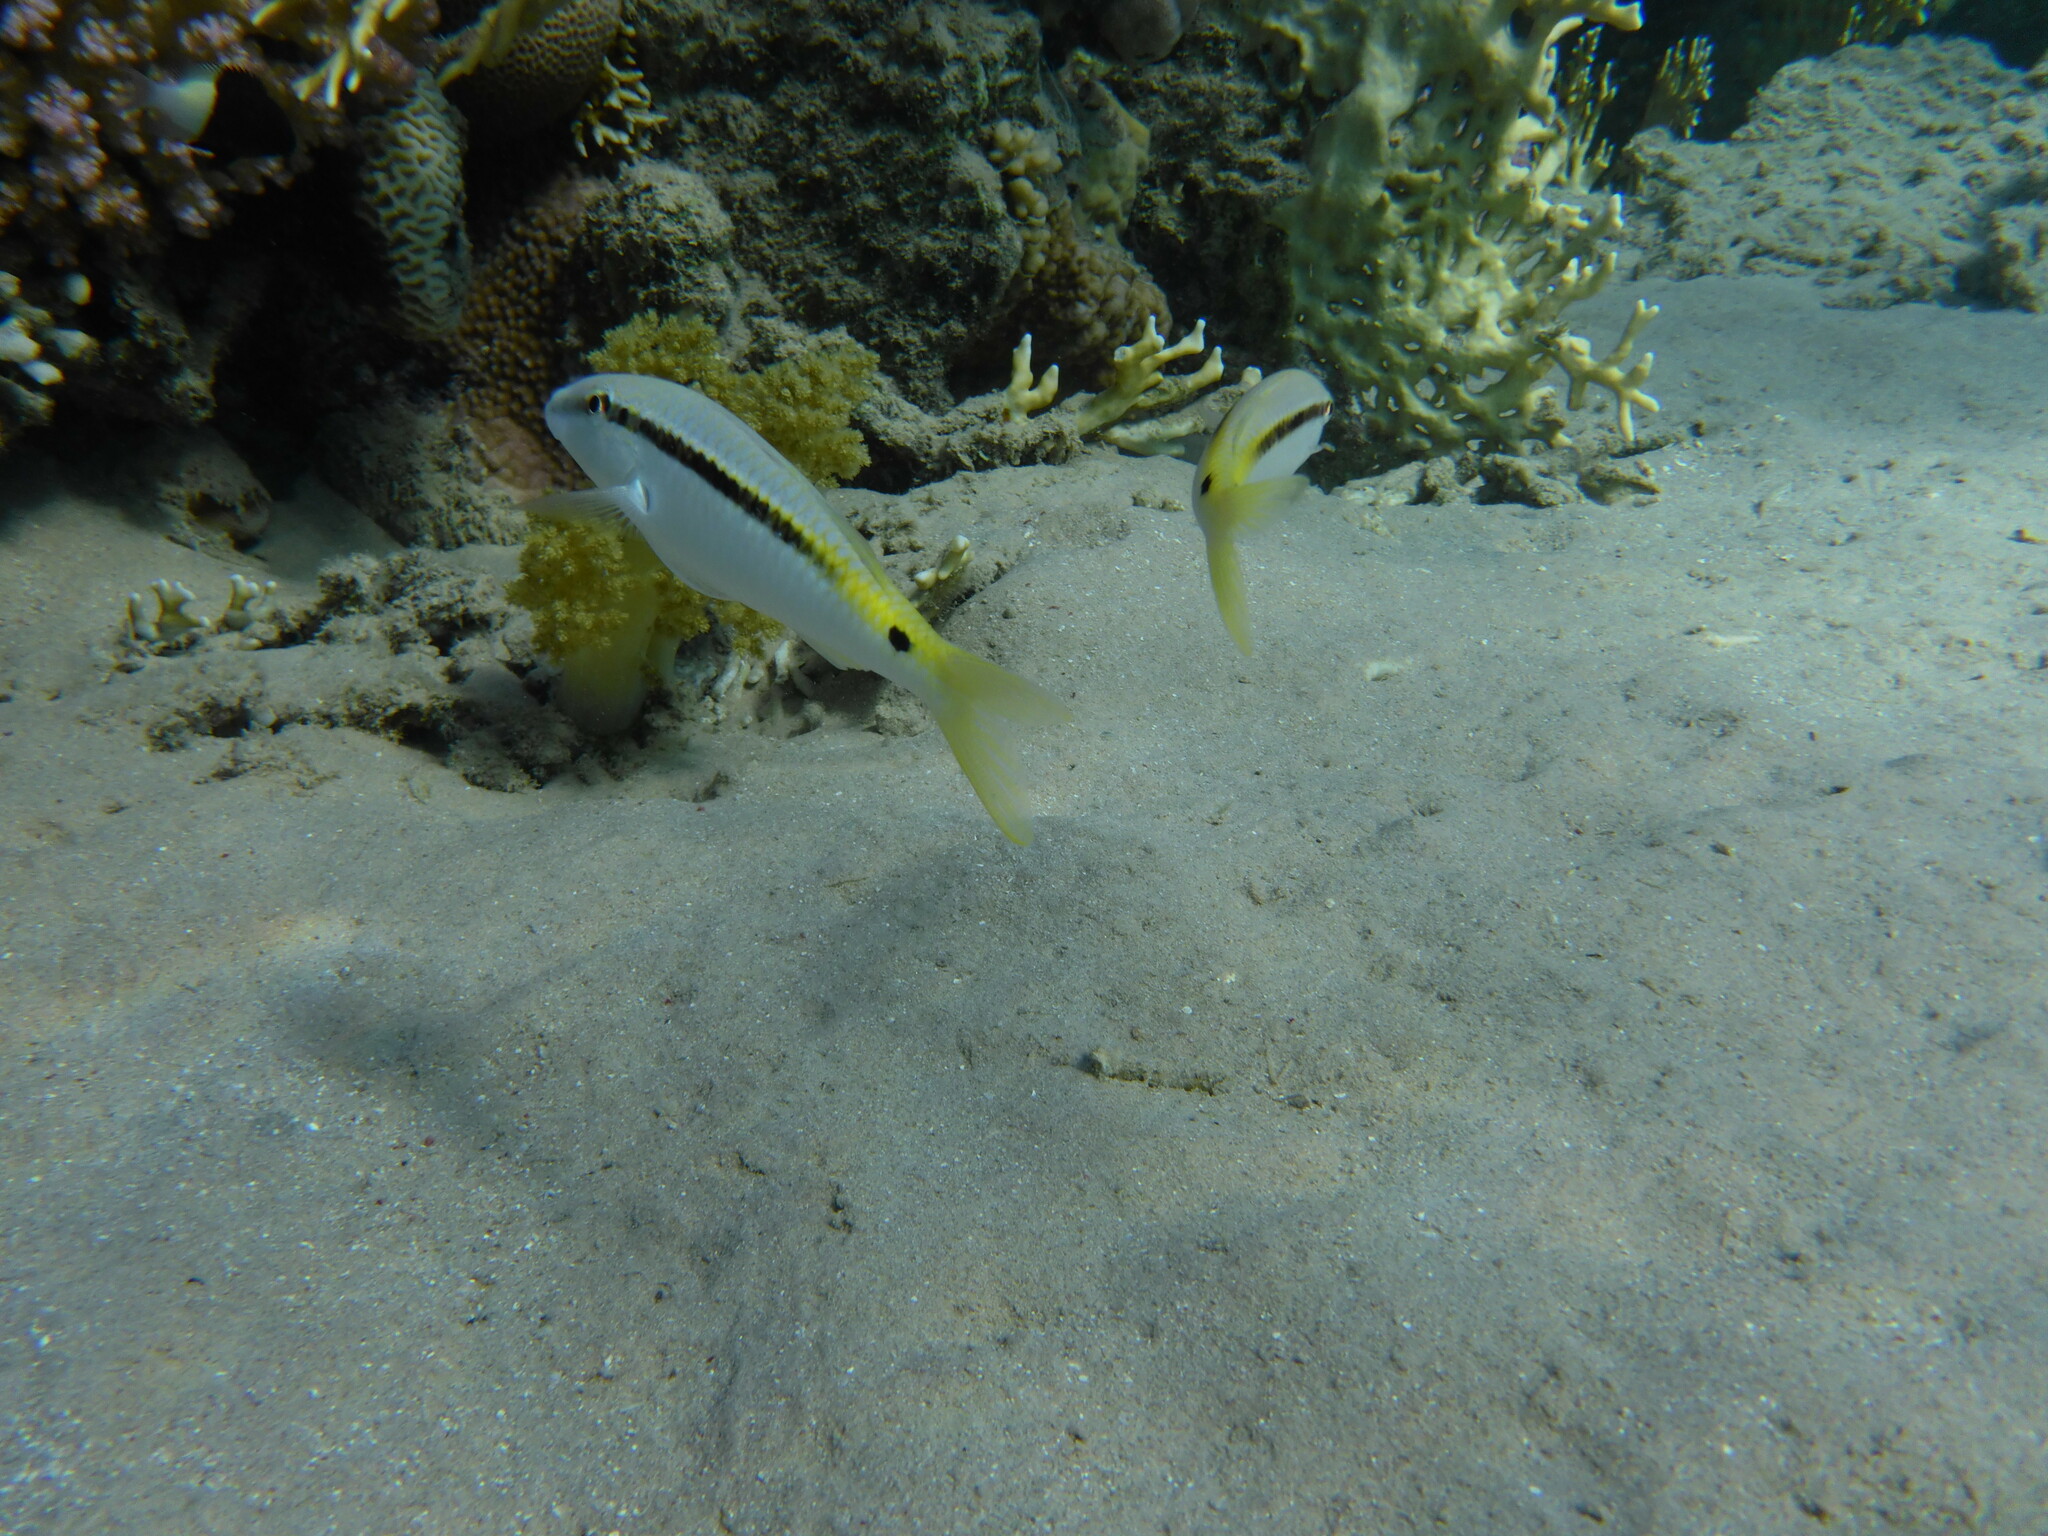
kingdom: Animalia
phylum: Chordata
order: Perciformes
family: Mullidae
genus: Parupeneus
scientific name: Parupeneus forsskali
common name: Red sea goatfish
